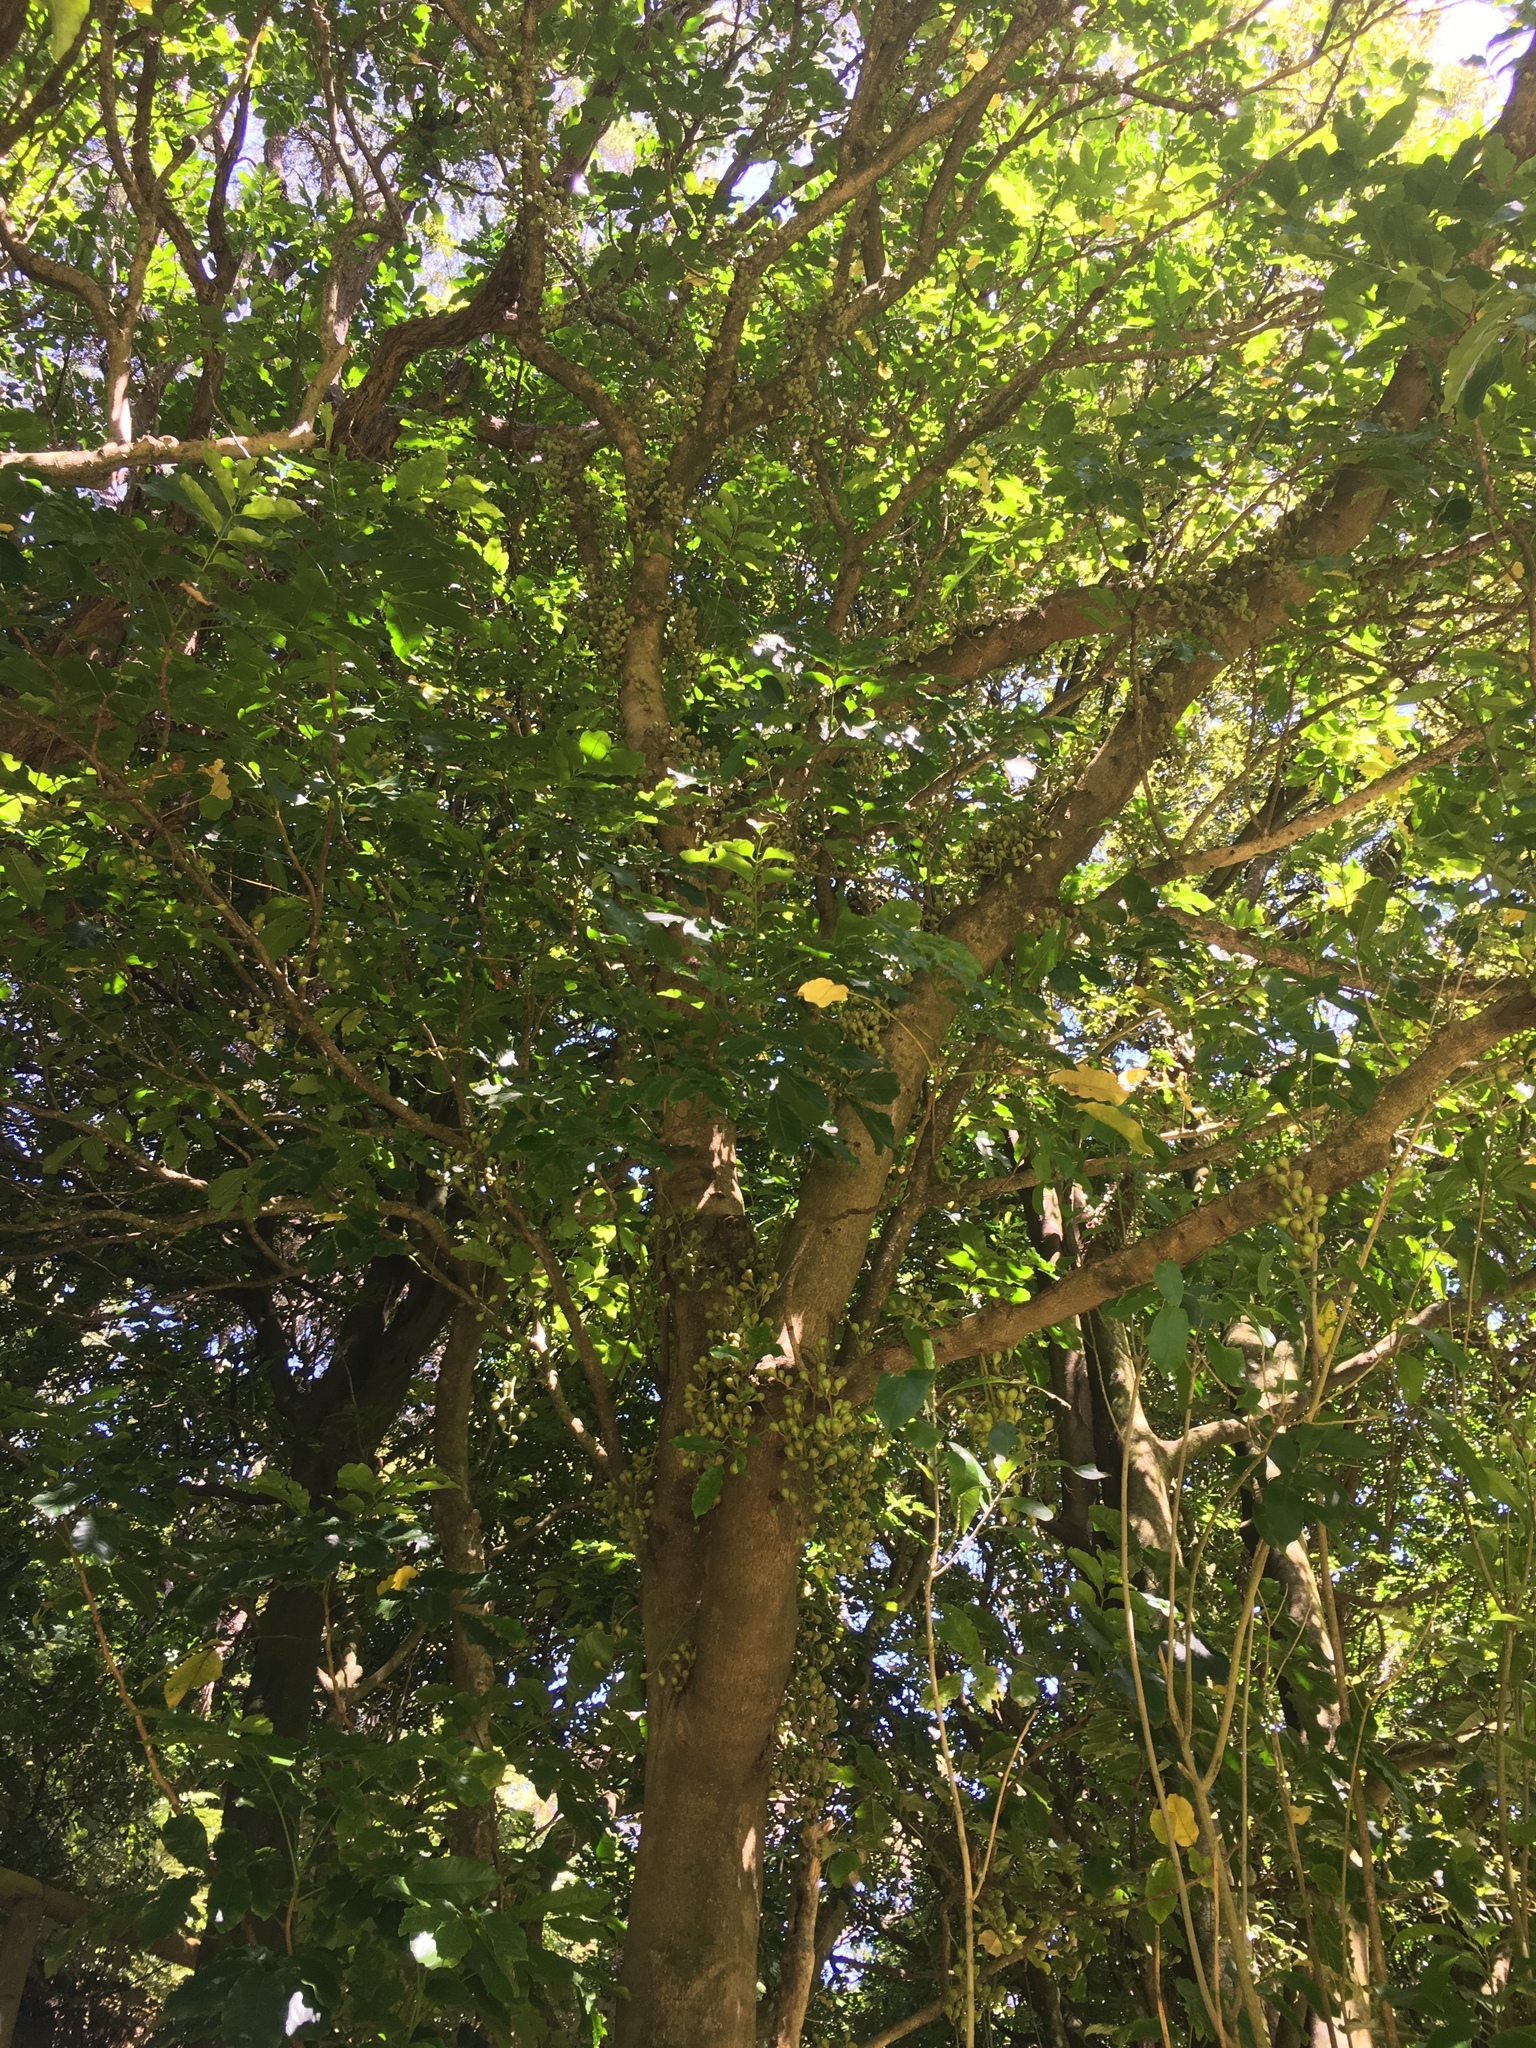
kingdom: Plantae
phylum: Tracheophyta
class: Magnoliopsida
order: Sapindales
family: Meliaceae
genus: Didymocheton
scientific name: Didymocheton spectabilis
